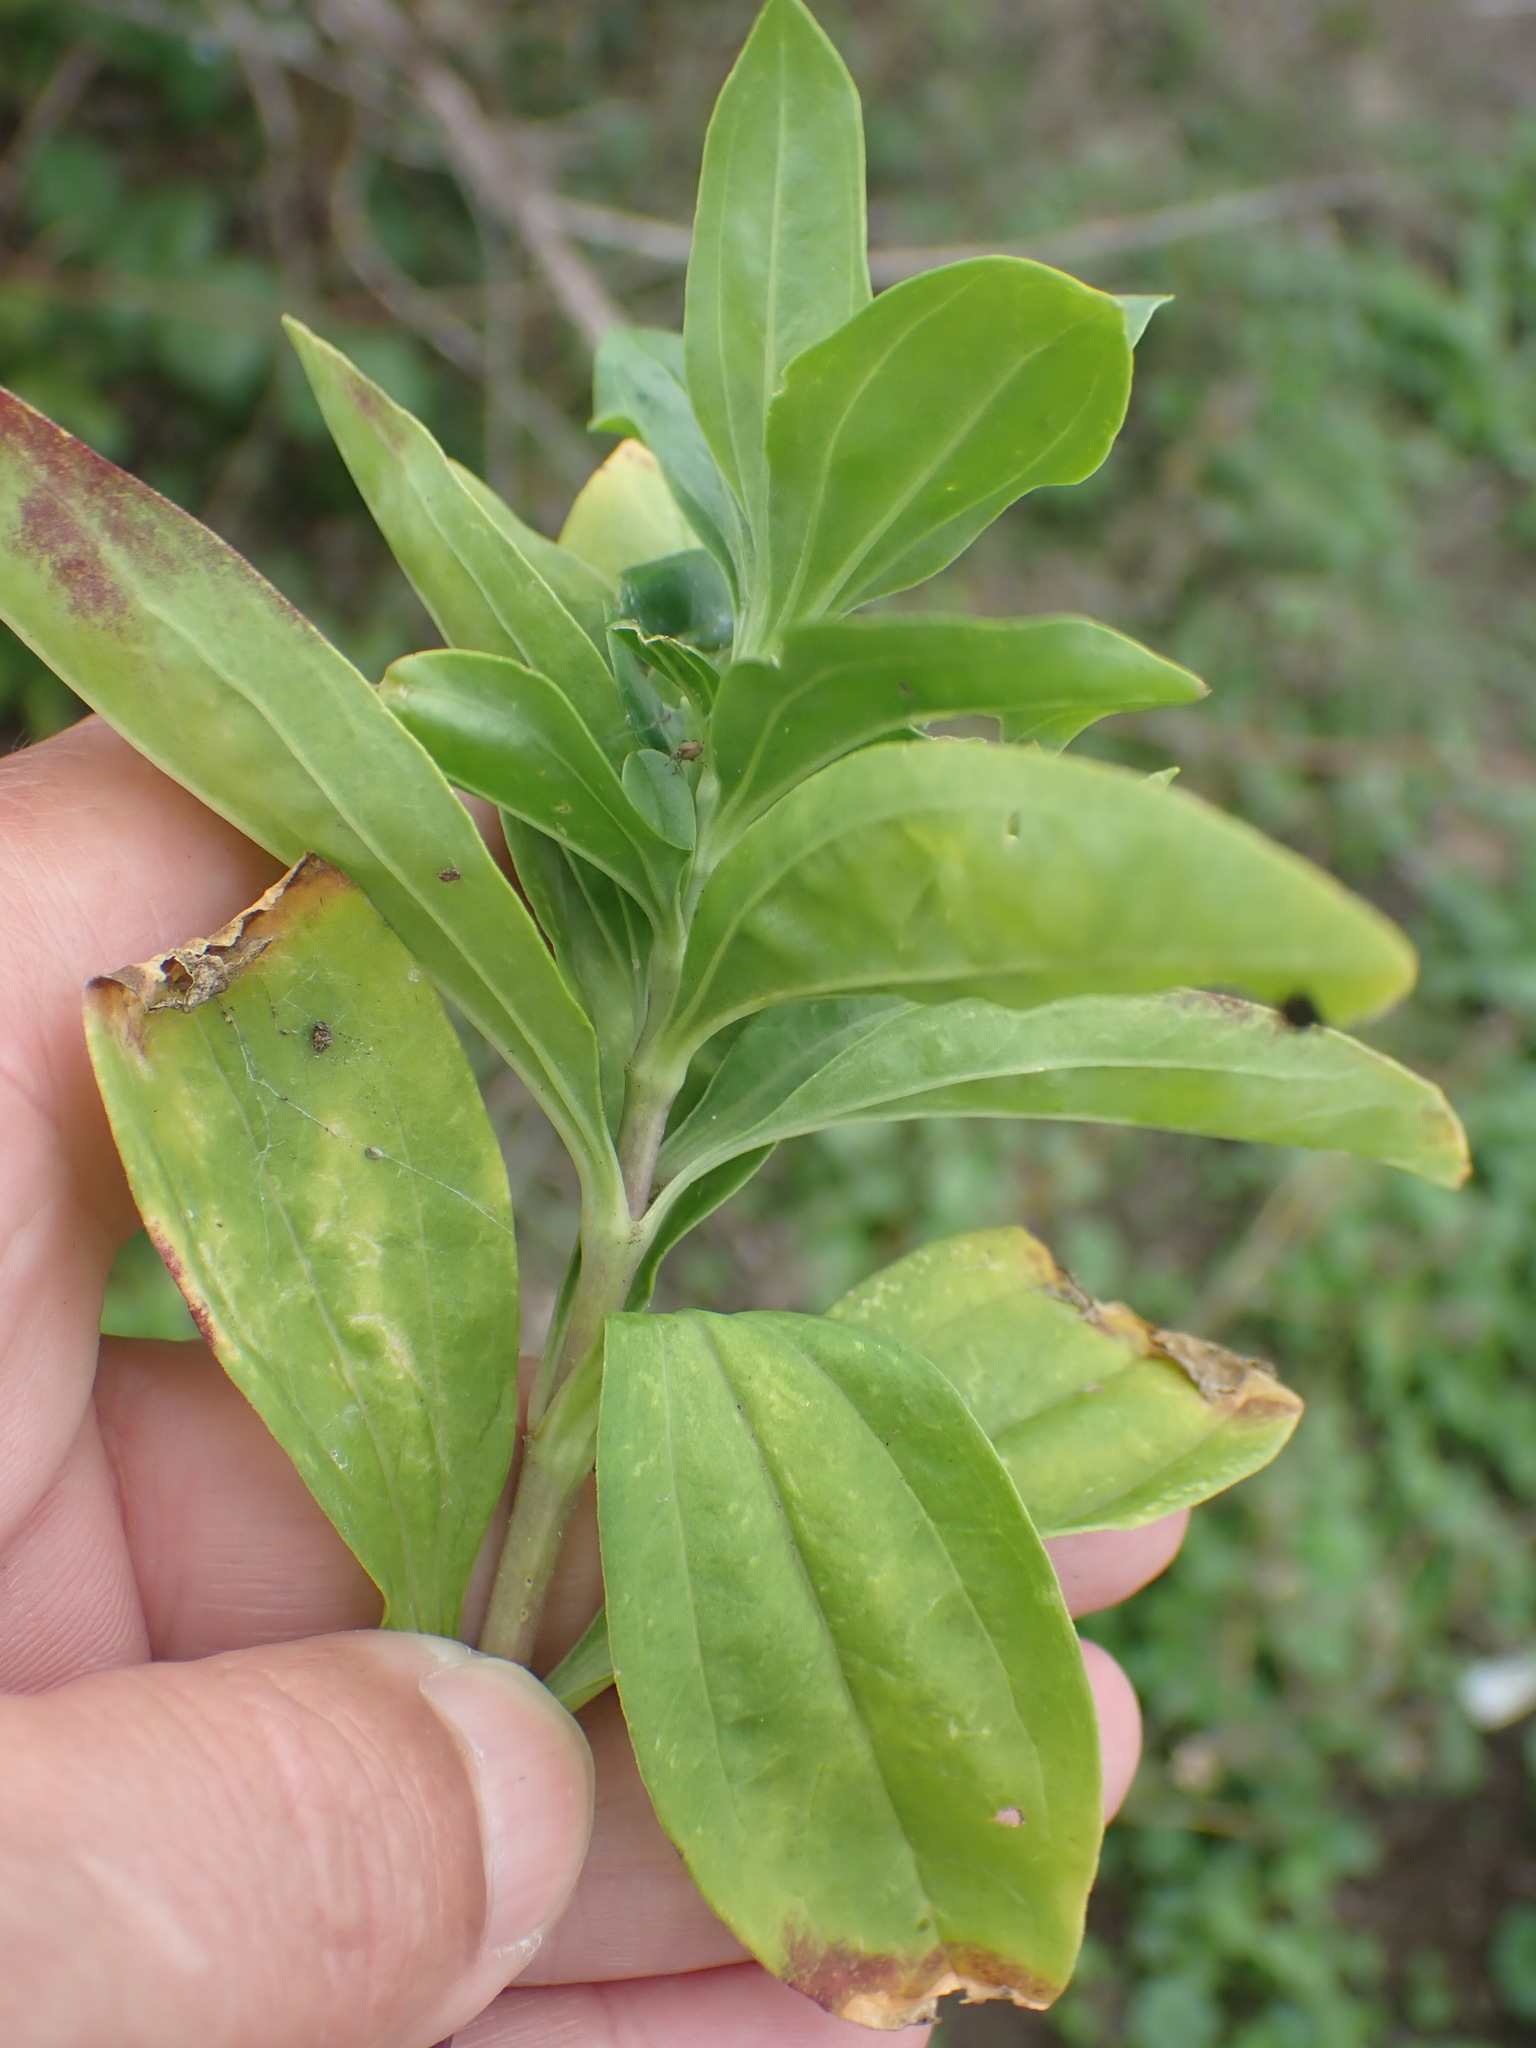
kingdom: Plantae
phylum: Tracheophyta
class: Magnoliopsida
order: Caryophyllales
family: Caryophyllaceae
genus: Saponaria
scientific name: Saponaria officinalis
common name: Soapwort
